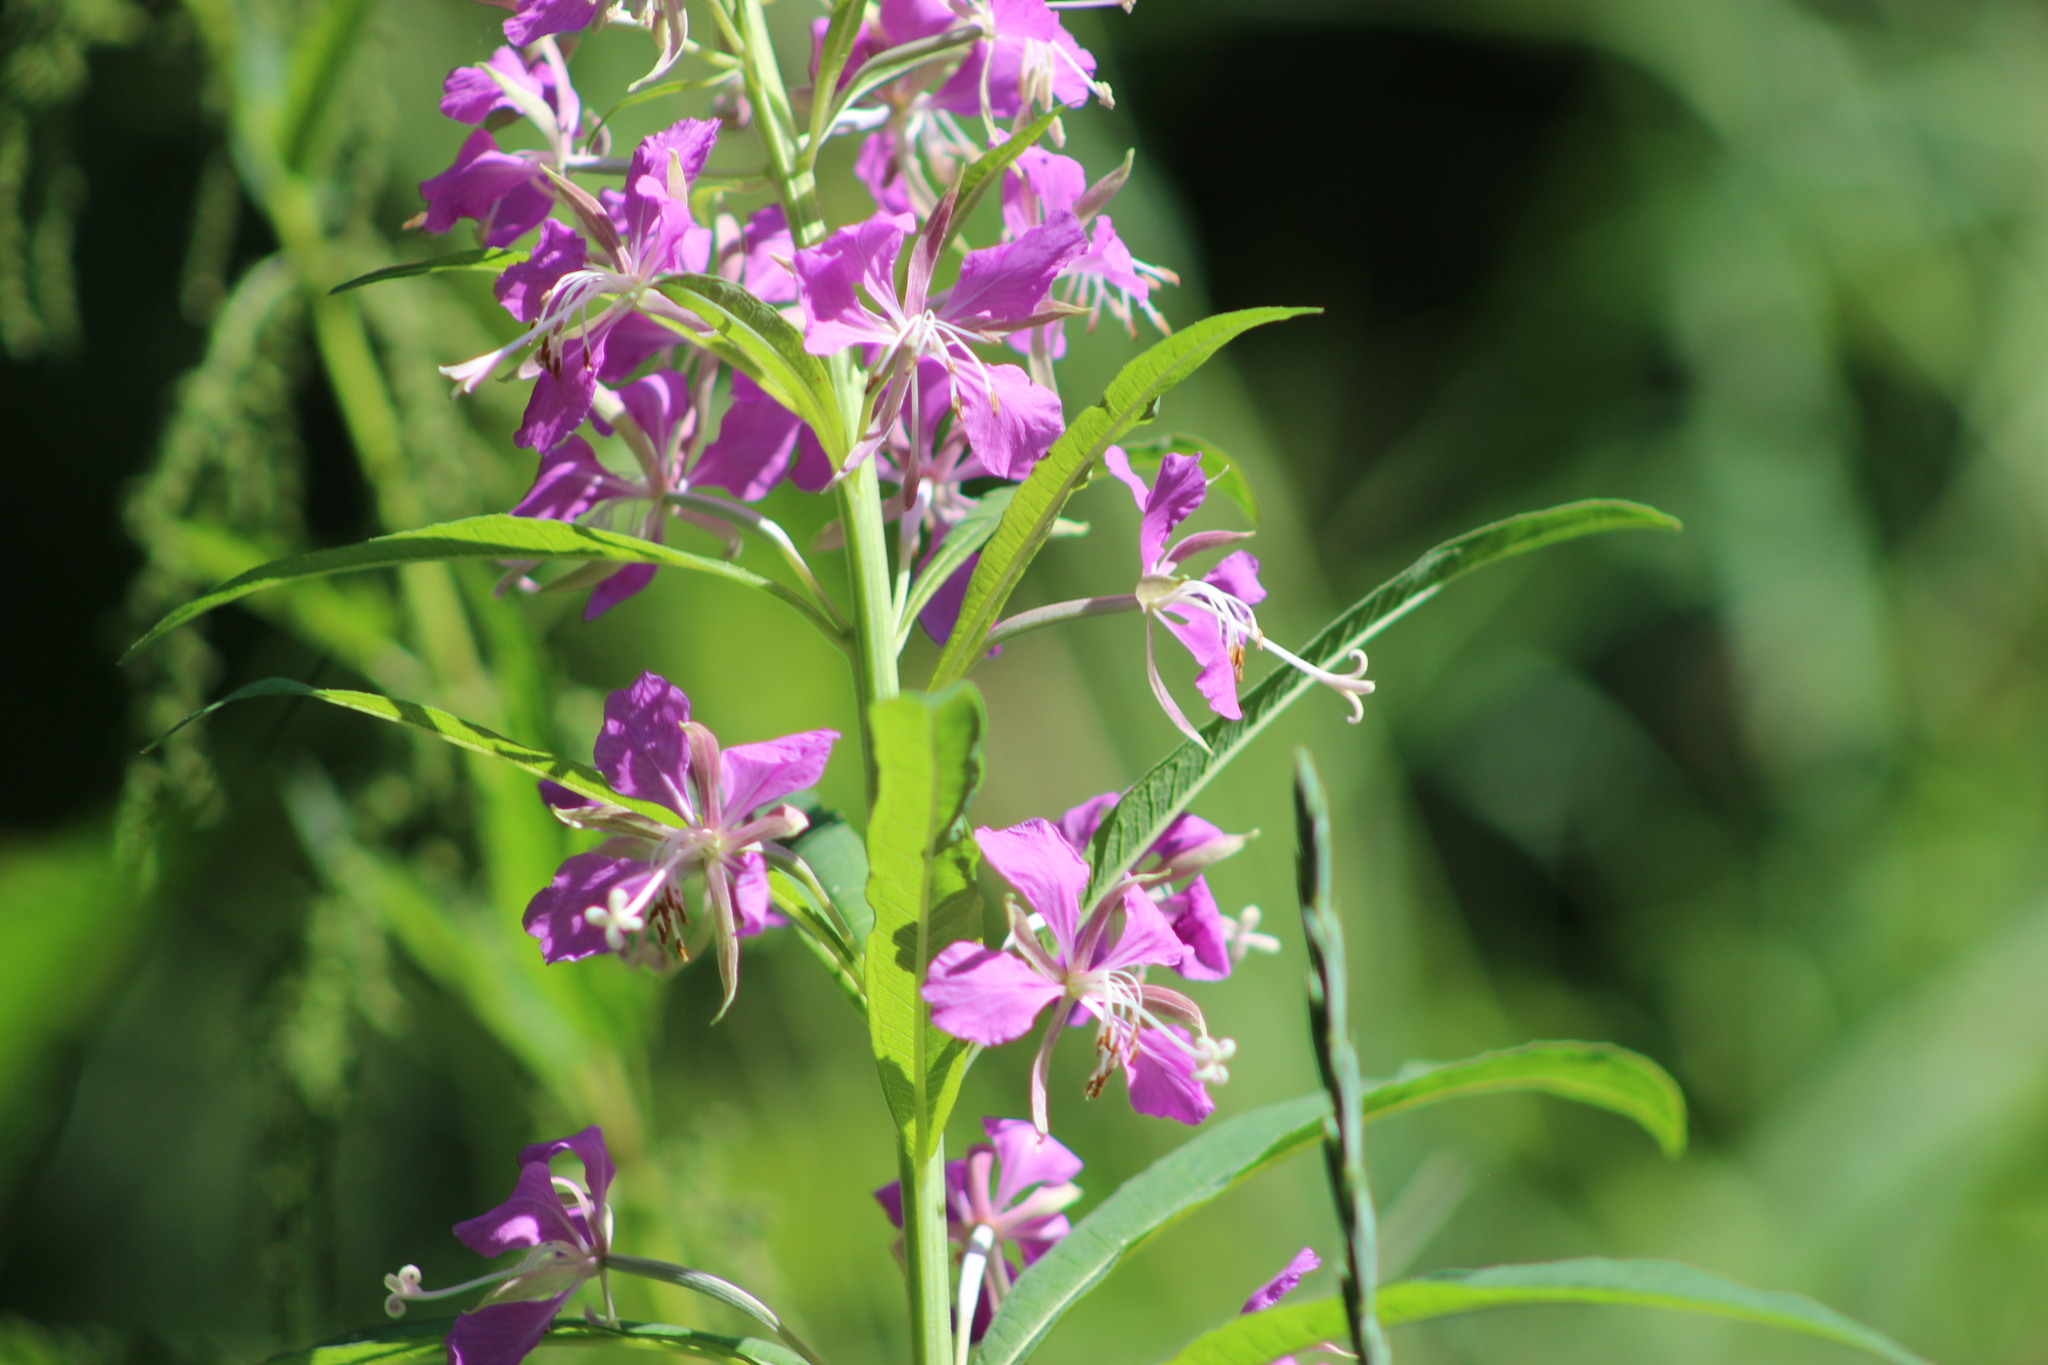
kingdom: Plantae
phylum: Tracheophyta
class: Magnoliopsida
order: Myrtales
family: Onagraceae
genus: Chamaenerion
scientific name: Chamaenerion angustifolium
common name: Fireweed
